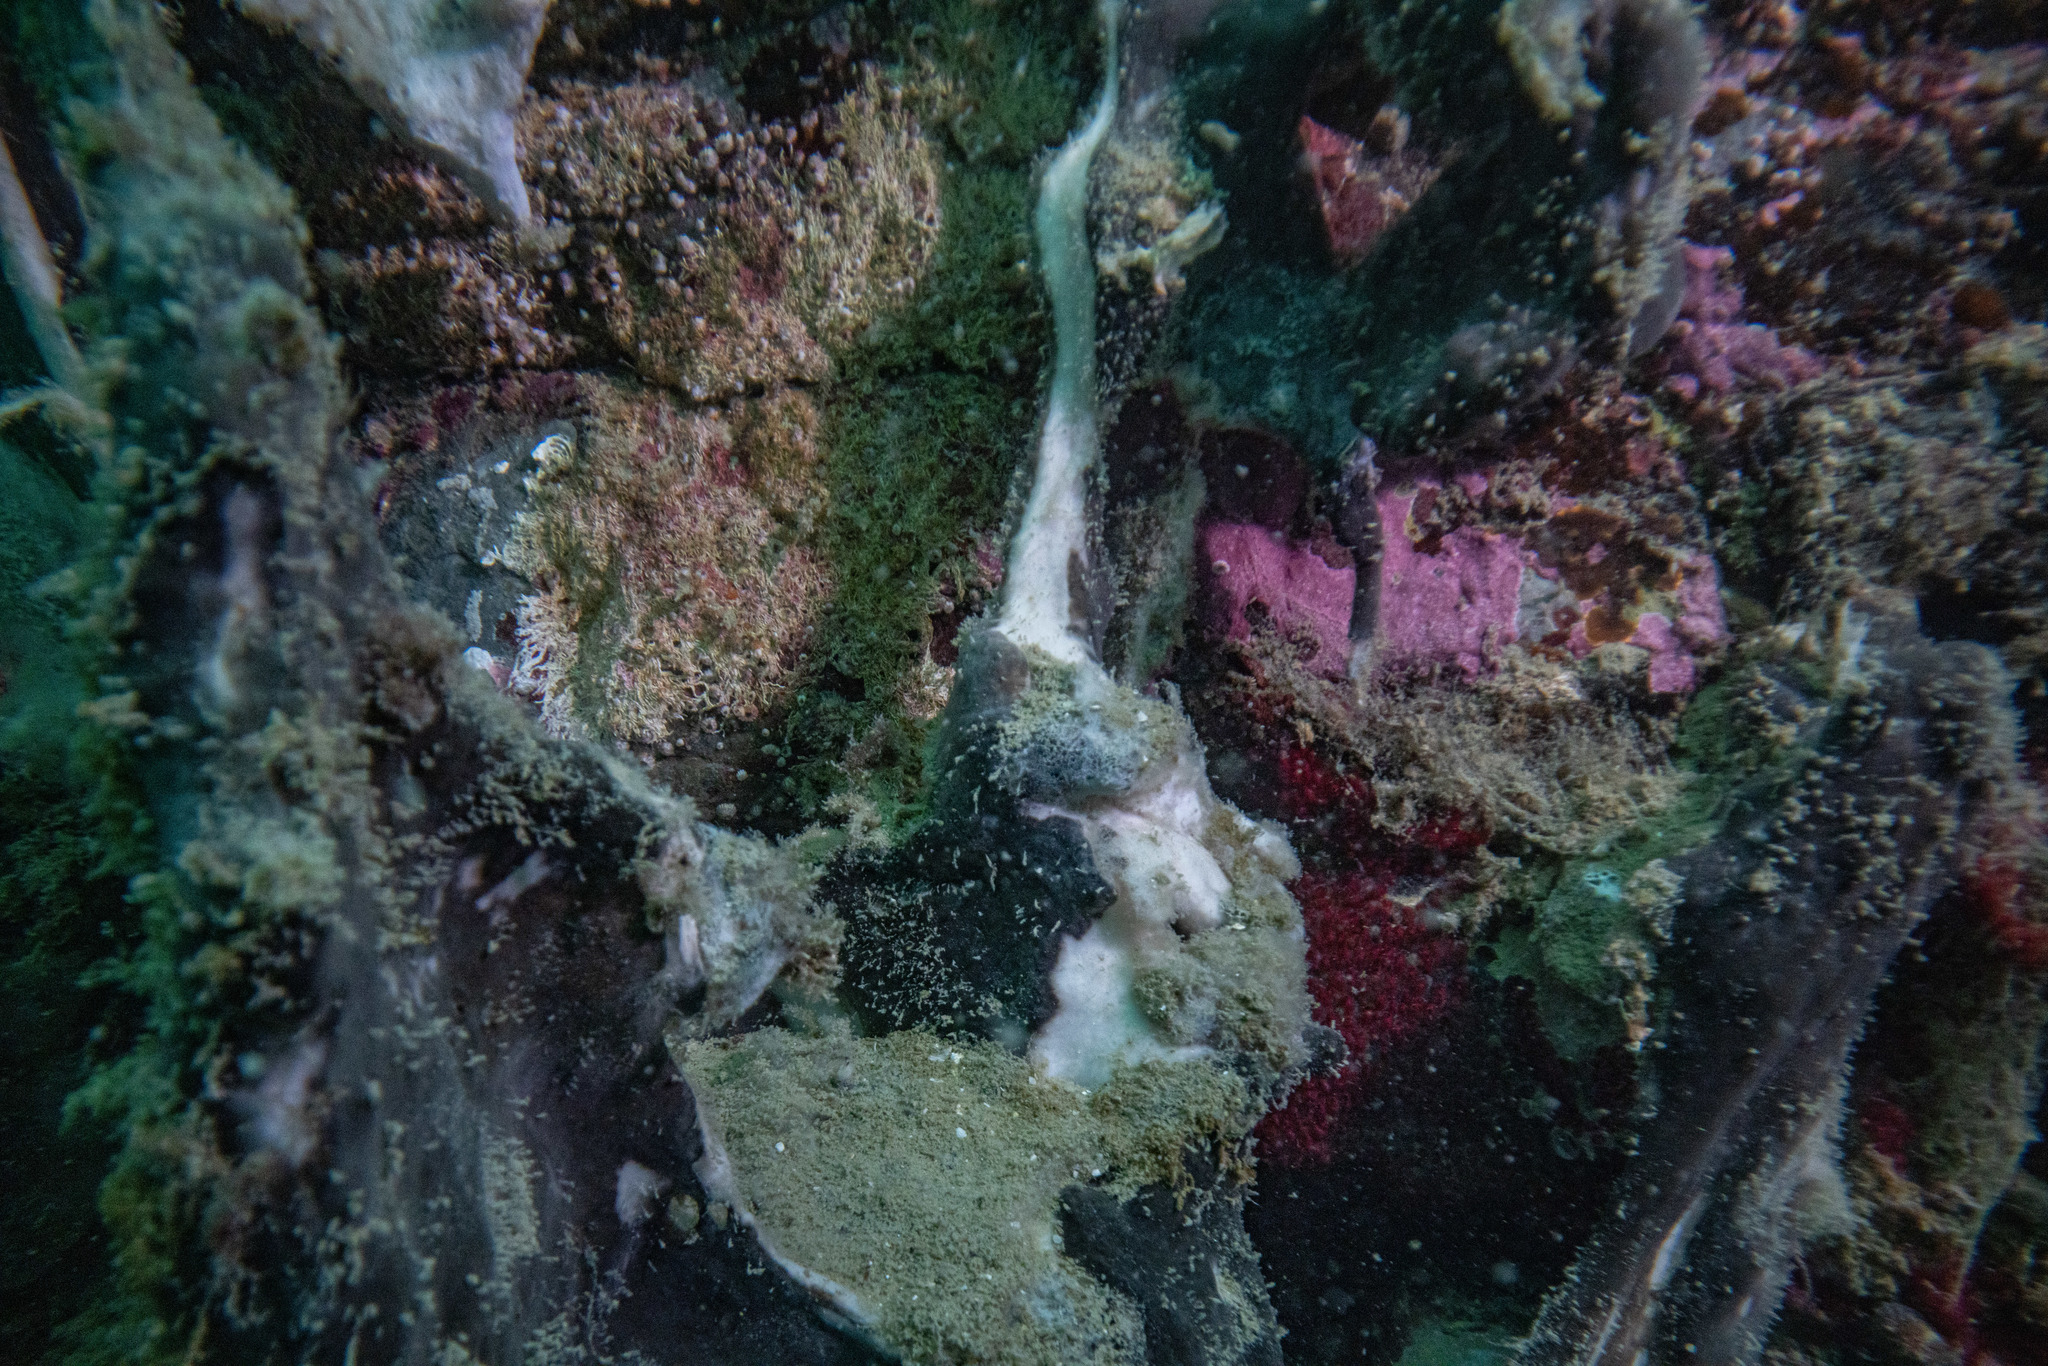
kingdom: Animalia
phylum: Porifera
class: Demospongiae
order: Tetractinellida
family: Ancorinidae
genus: Ecionemia
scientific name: Ecionemia alata
